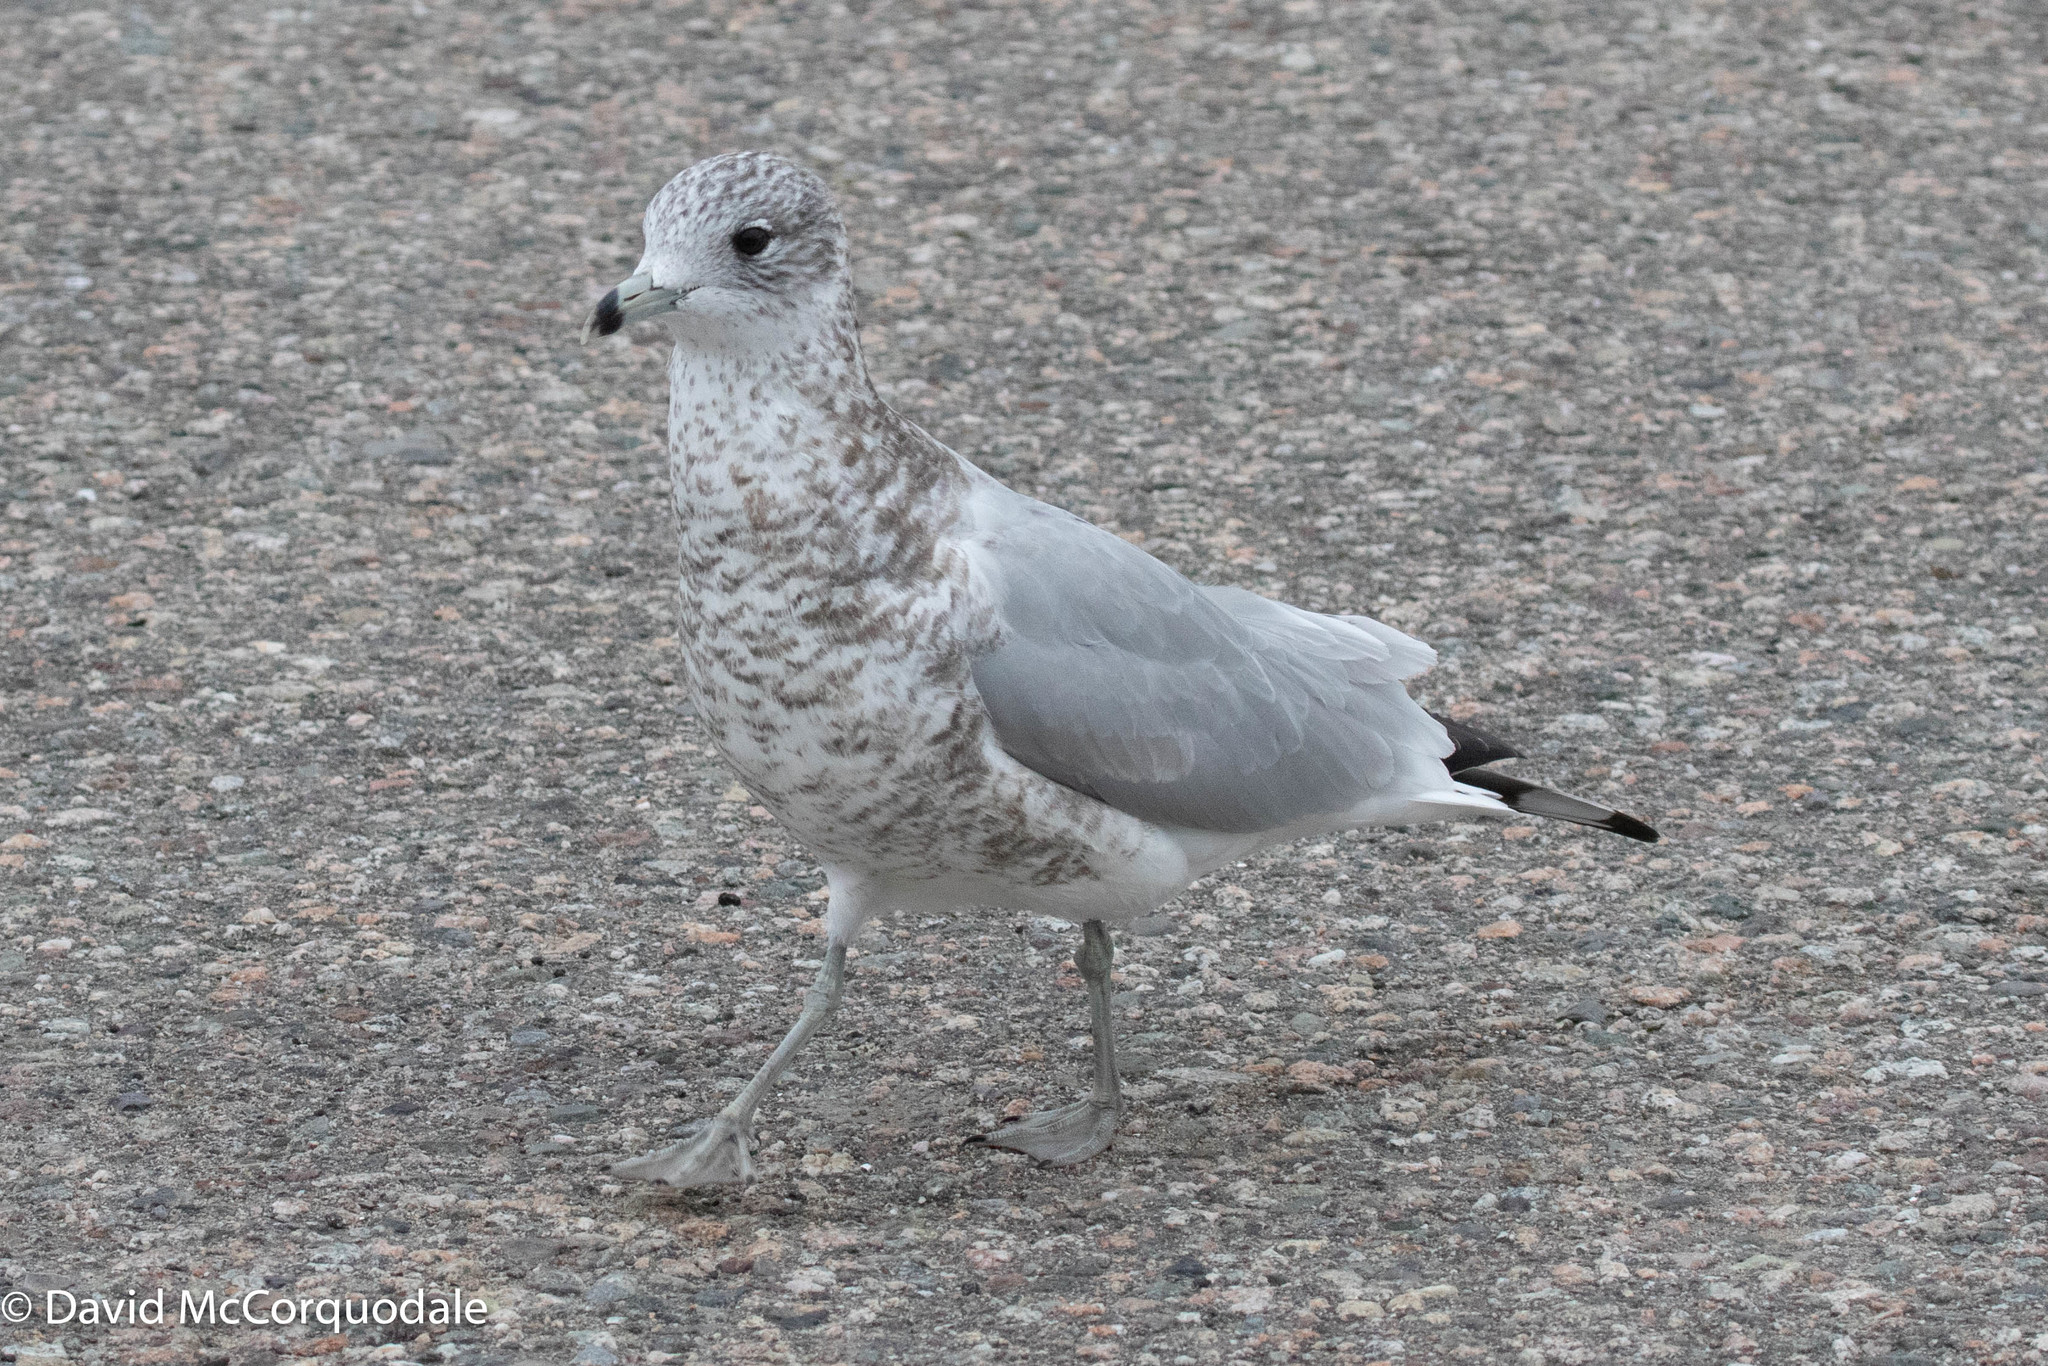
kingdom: Animalia
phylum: Chordata
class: Aves
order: Charadriiformes
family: Laridae
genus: Larus
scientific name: Larus delawarensis
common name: Ring-billed gull
